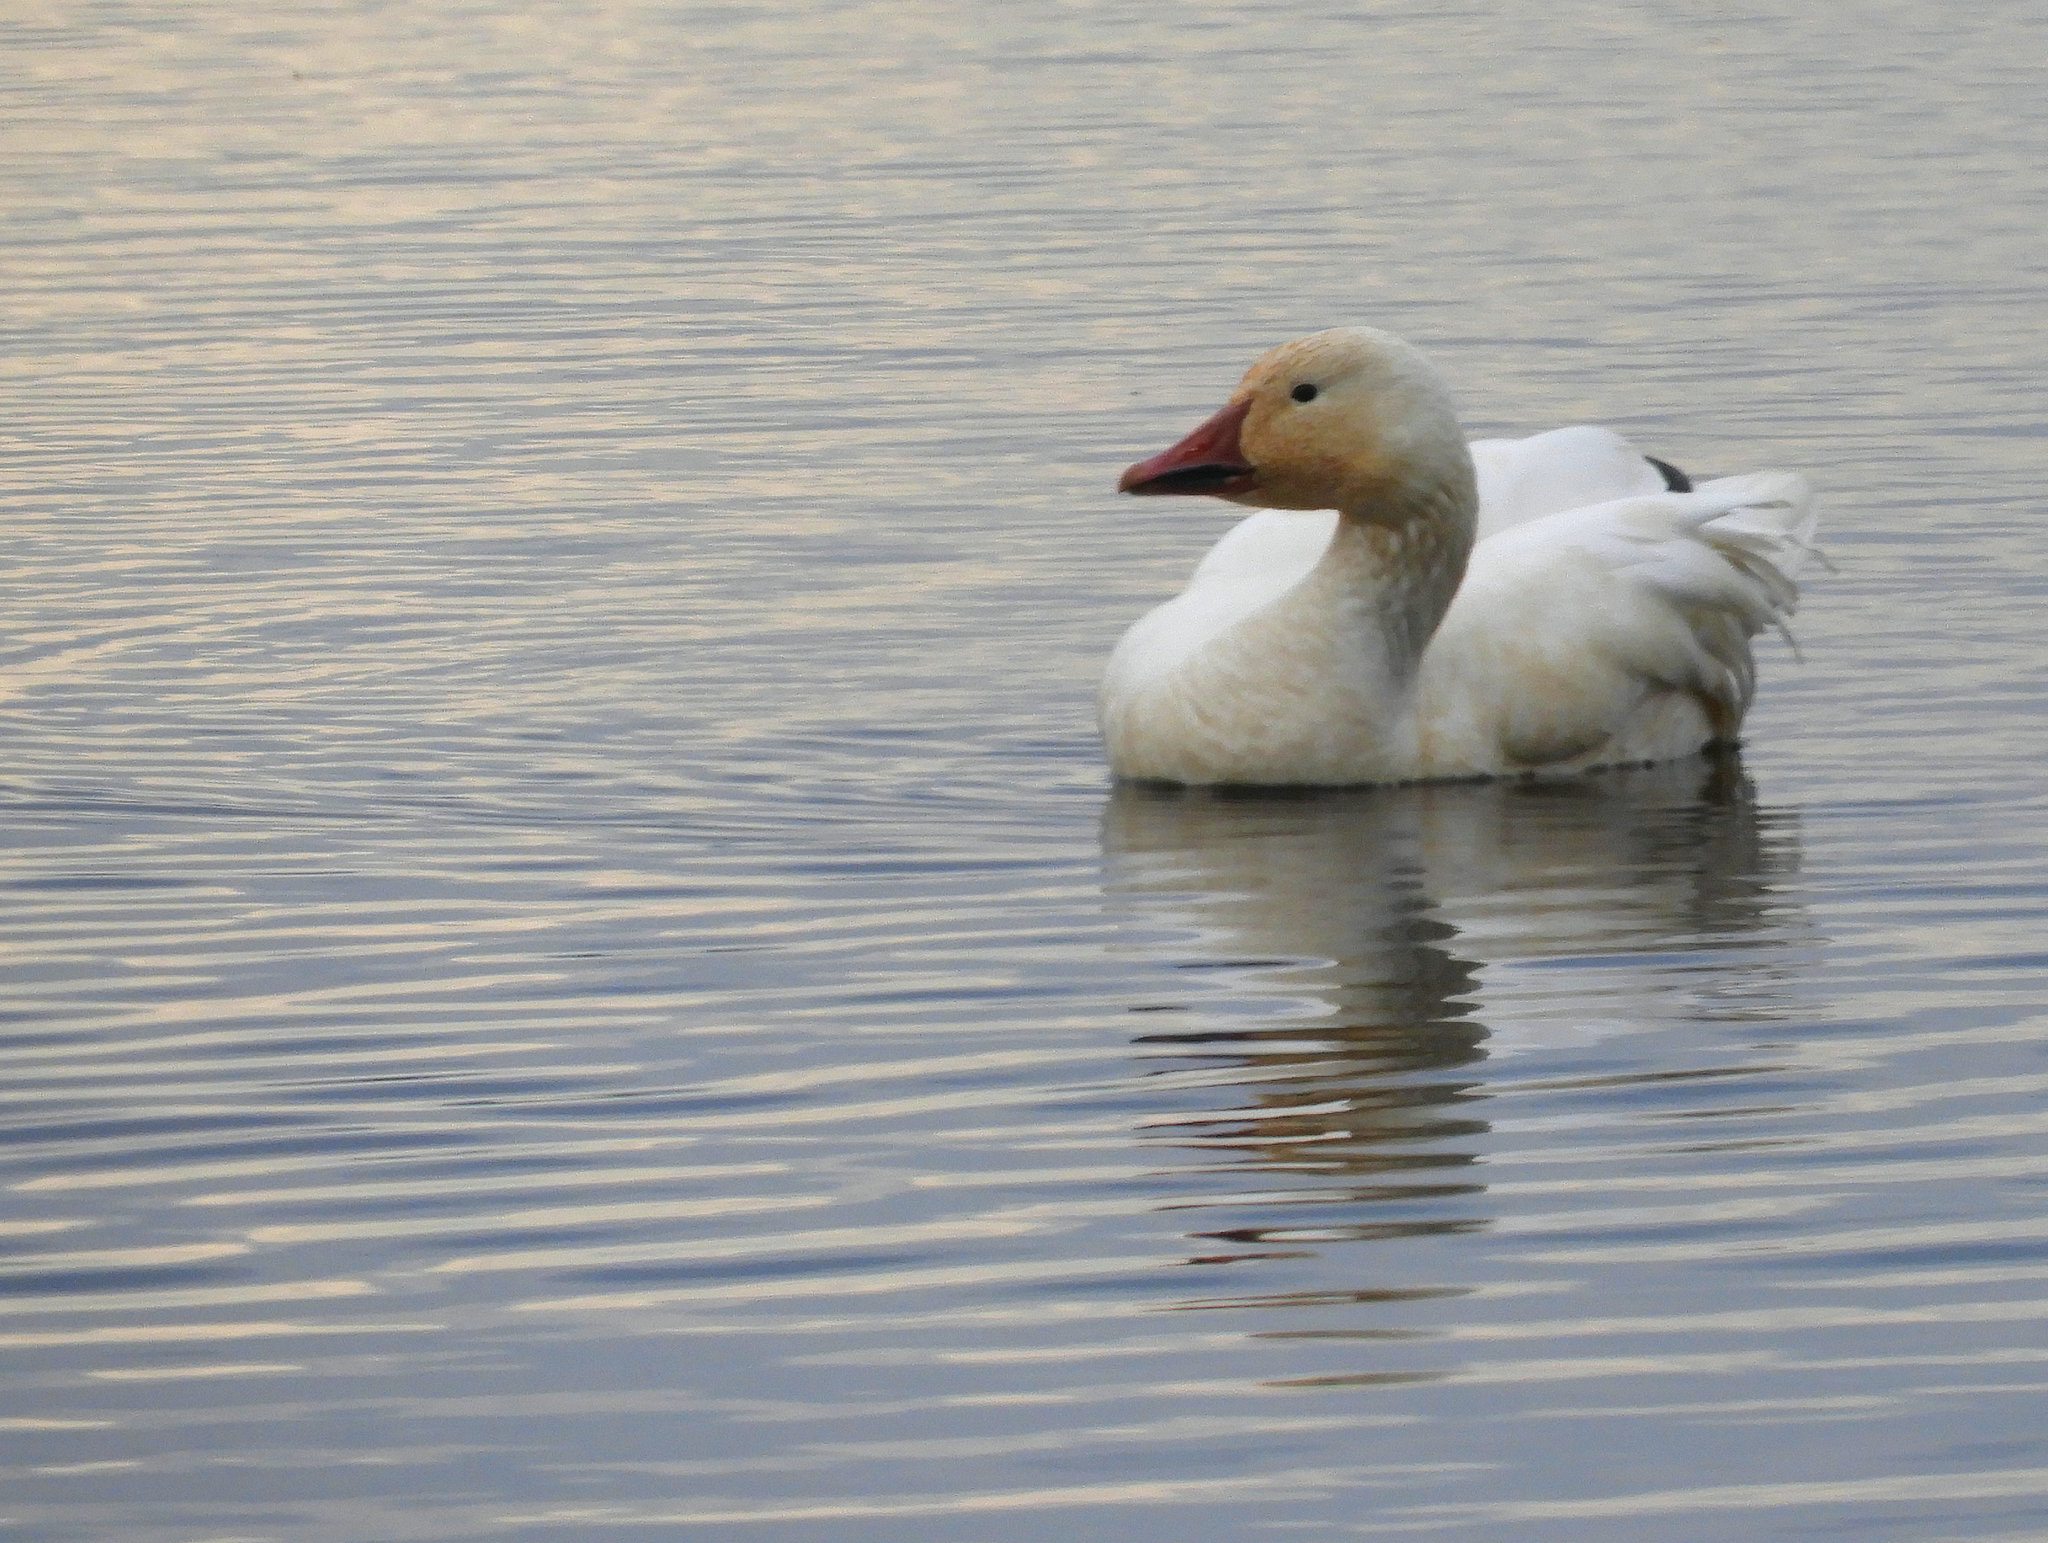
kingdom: Animalia
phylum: Chordata
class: Aves
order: Anseriformes
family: Anatidae
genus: Anser
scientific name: Anser caerulescens
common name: Snow goose
